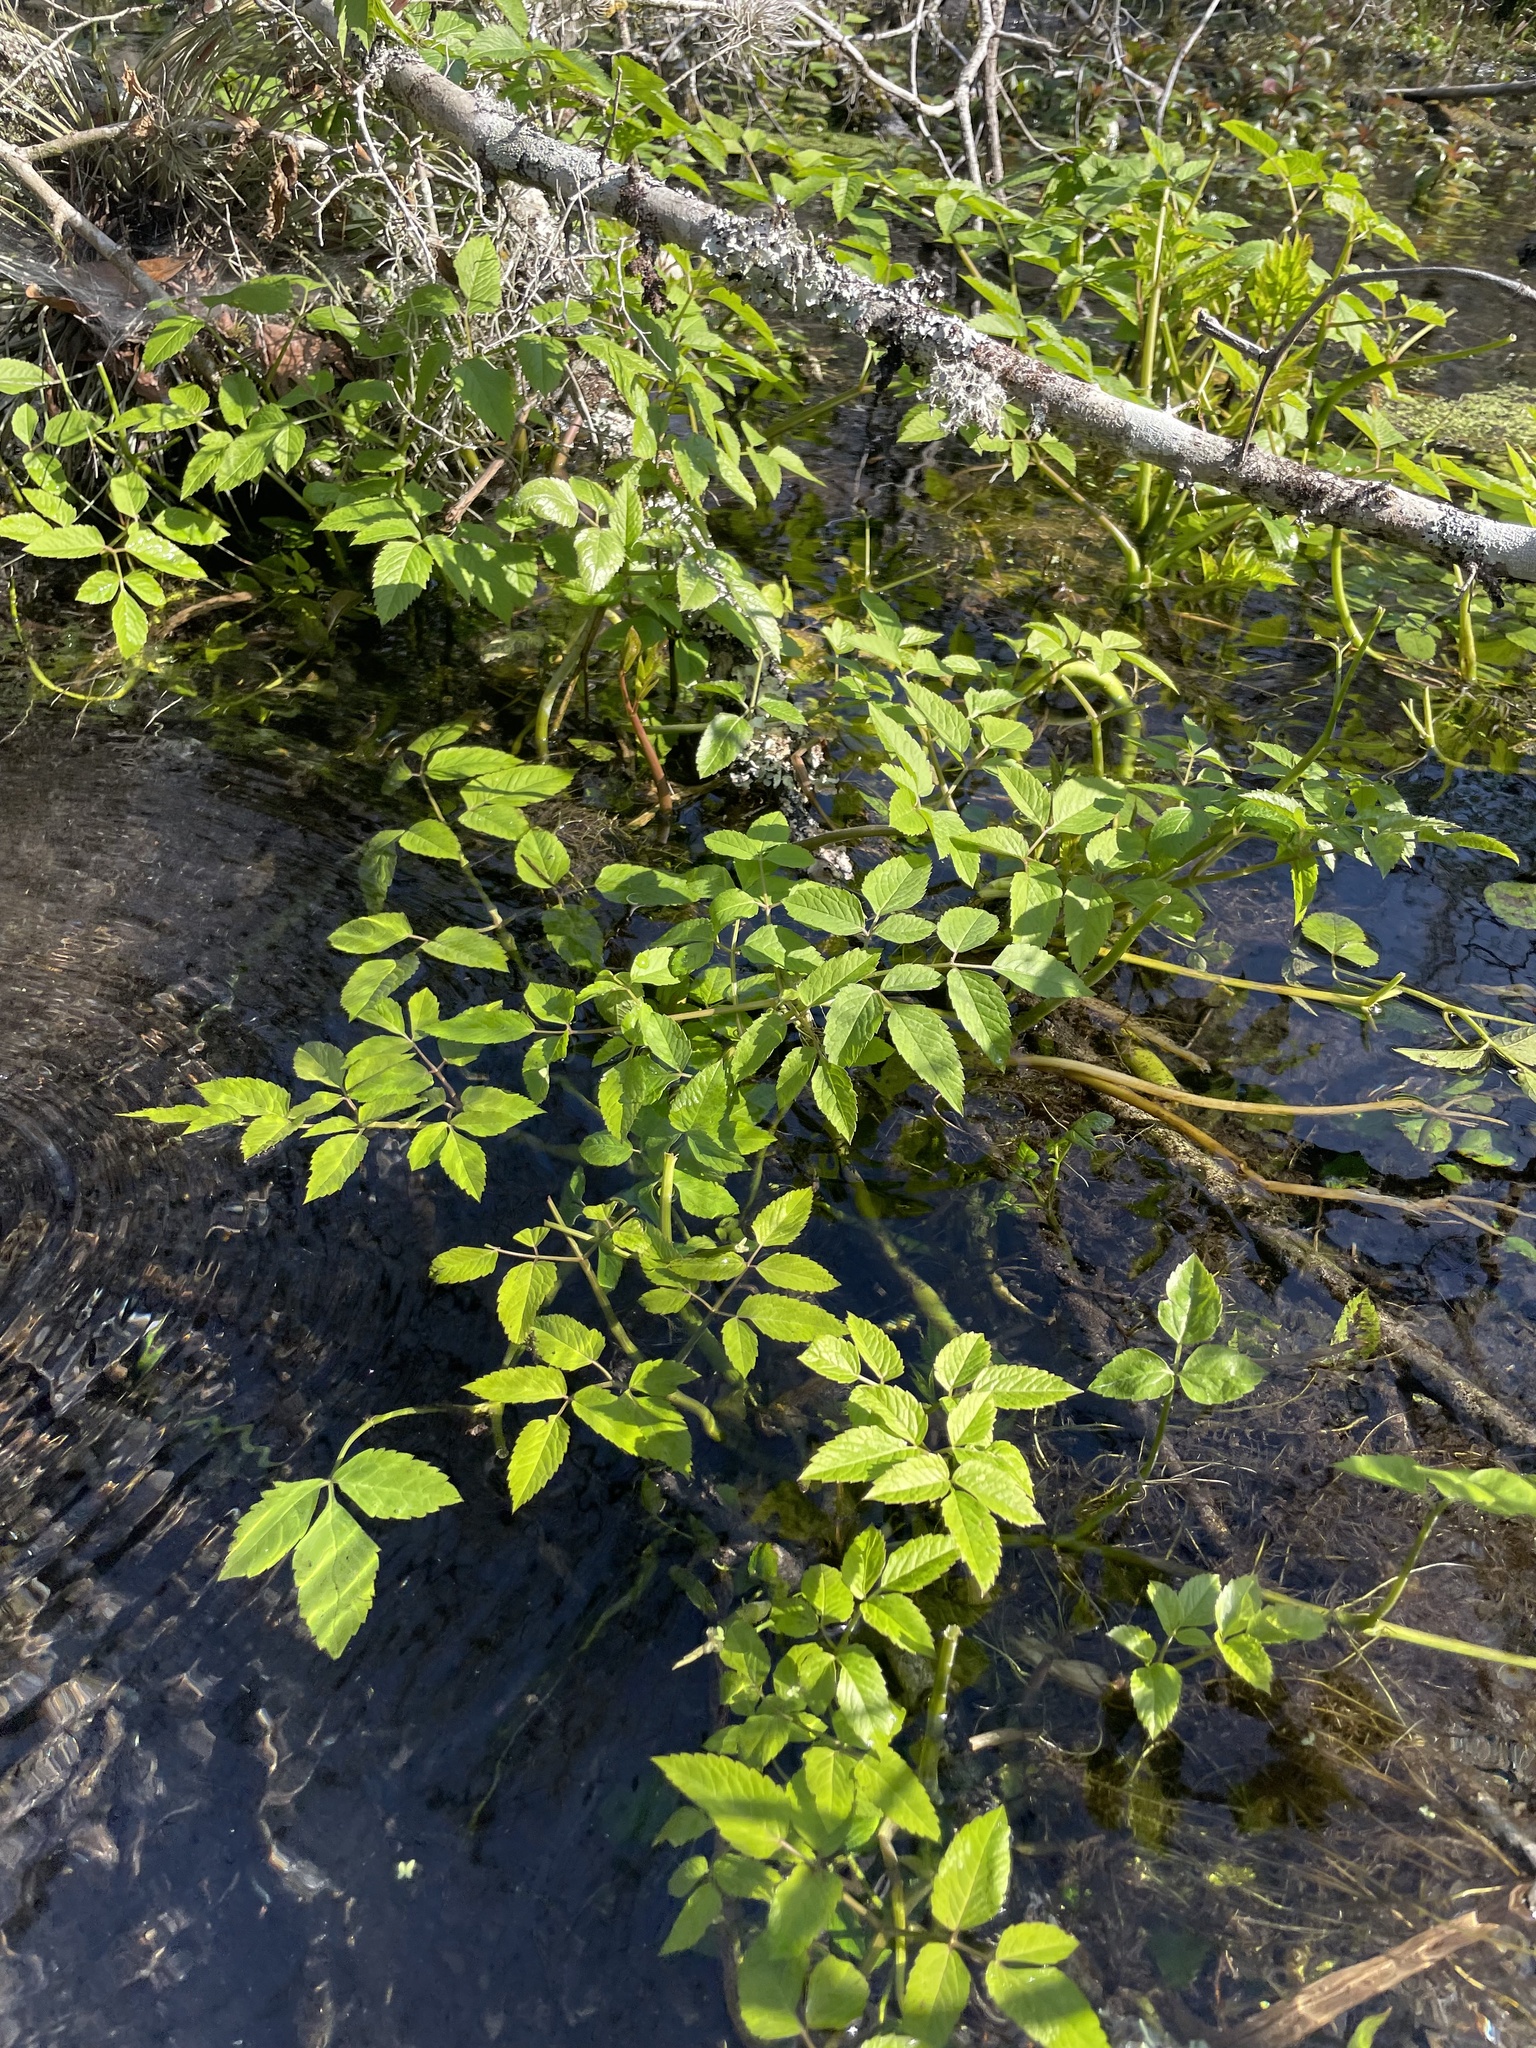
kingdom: Plantae
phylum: Tracheophyta
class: Magnoliopsida
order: Apiales
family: Apiaceae
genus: Cicuta
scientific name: Cicuta maculata
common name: Spotted cowbane
